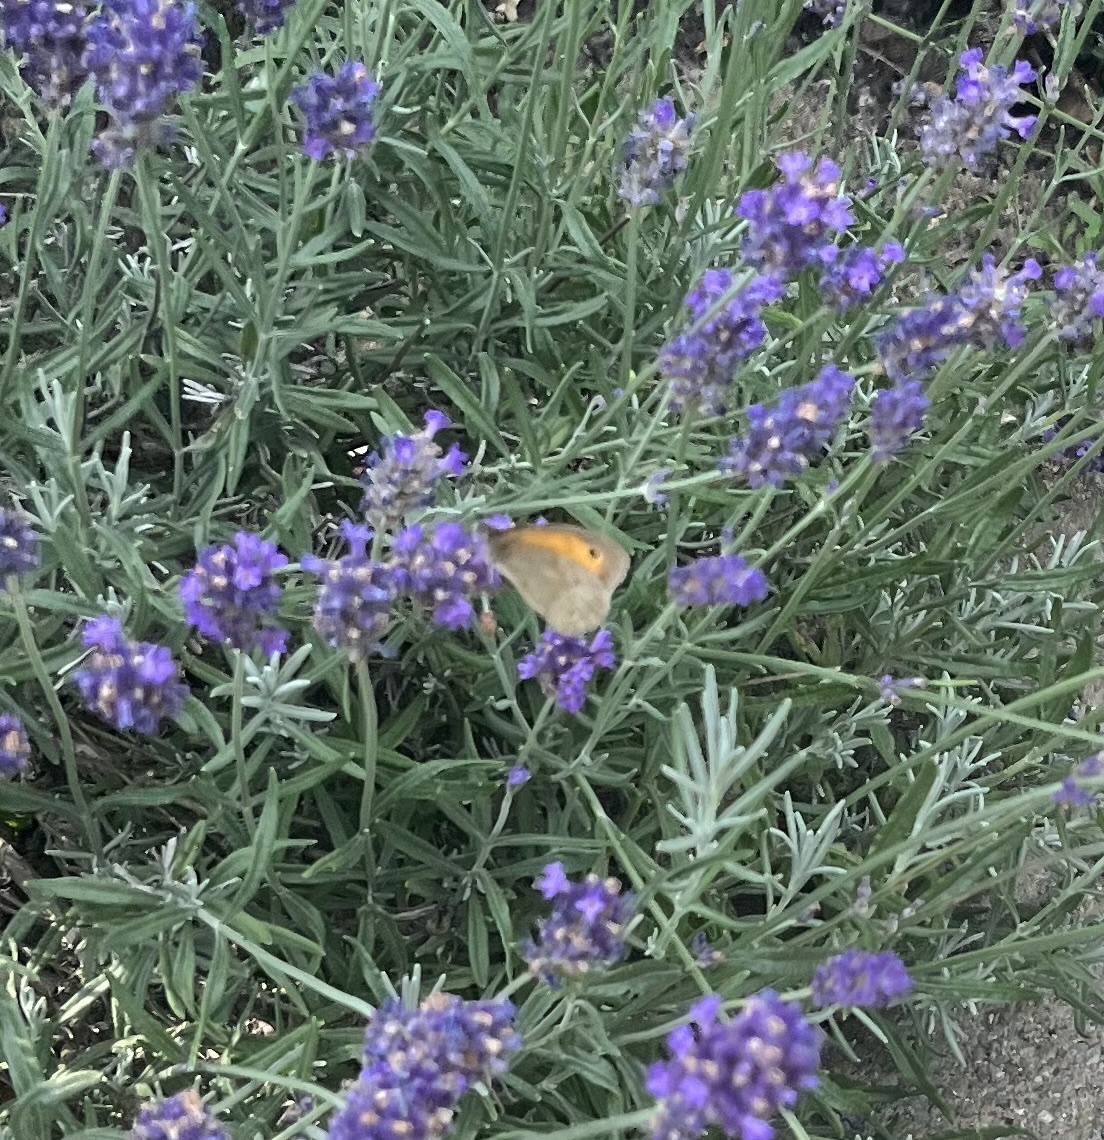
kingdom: Animalia
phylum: Arthropoda
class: Insecta
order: Lepidoptera
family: Nymphalidae
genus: Maniola
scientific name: Maniola jurtina
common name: Meadow brown
